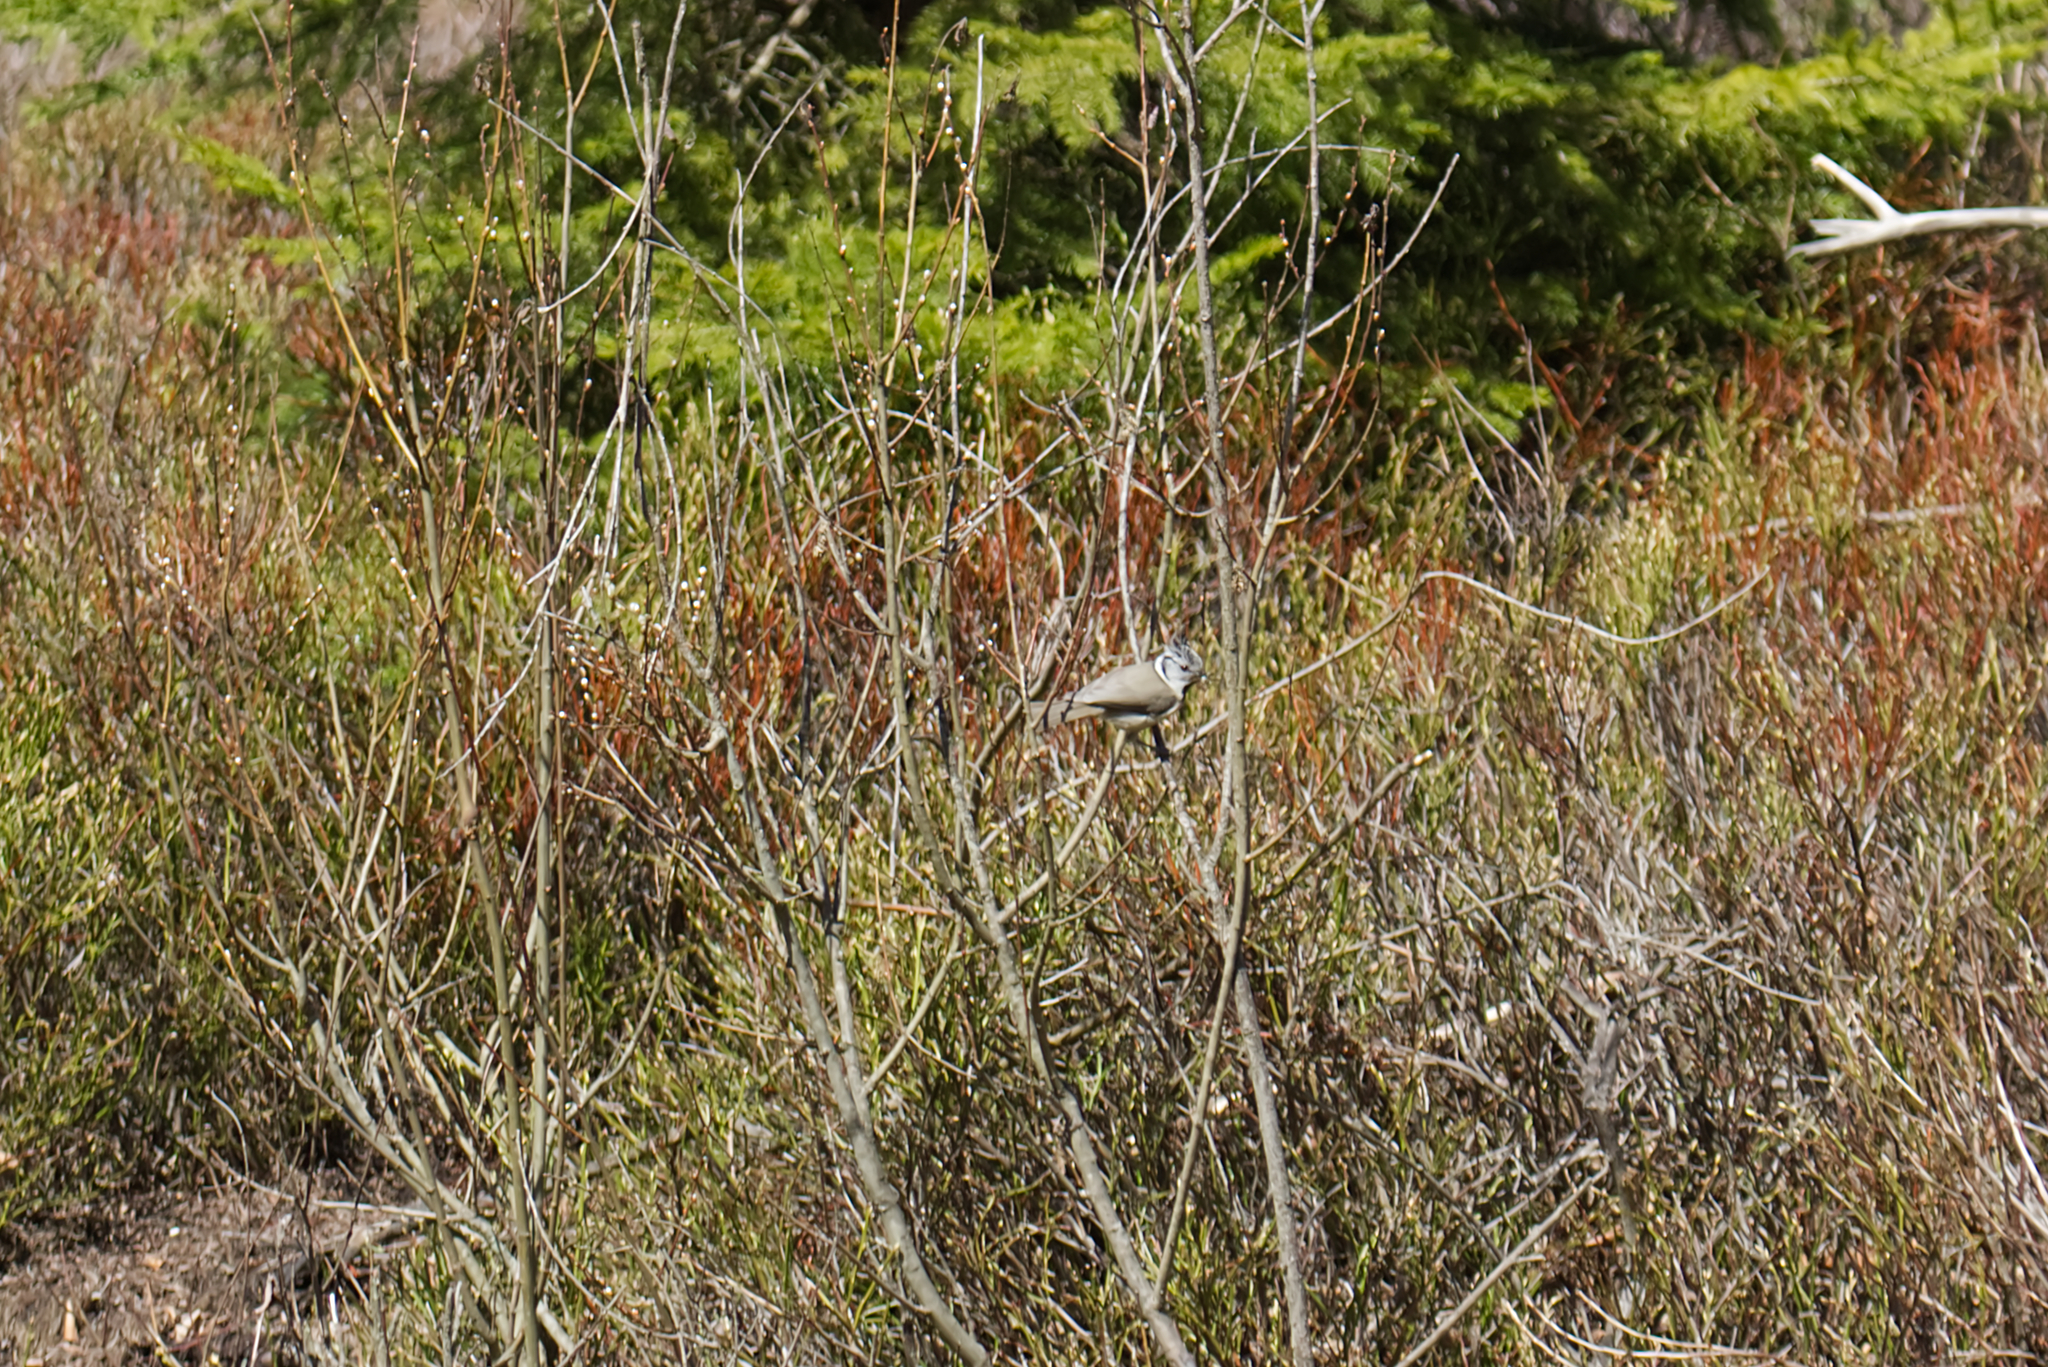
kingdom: Animalia
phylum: Chordata
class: Aves
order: Passeriformes
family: Paridae
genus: Lophophanes
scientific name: Lophophanes cristatus
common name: European crested tit
